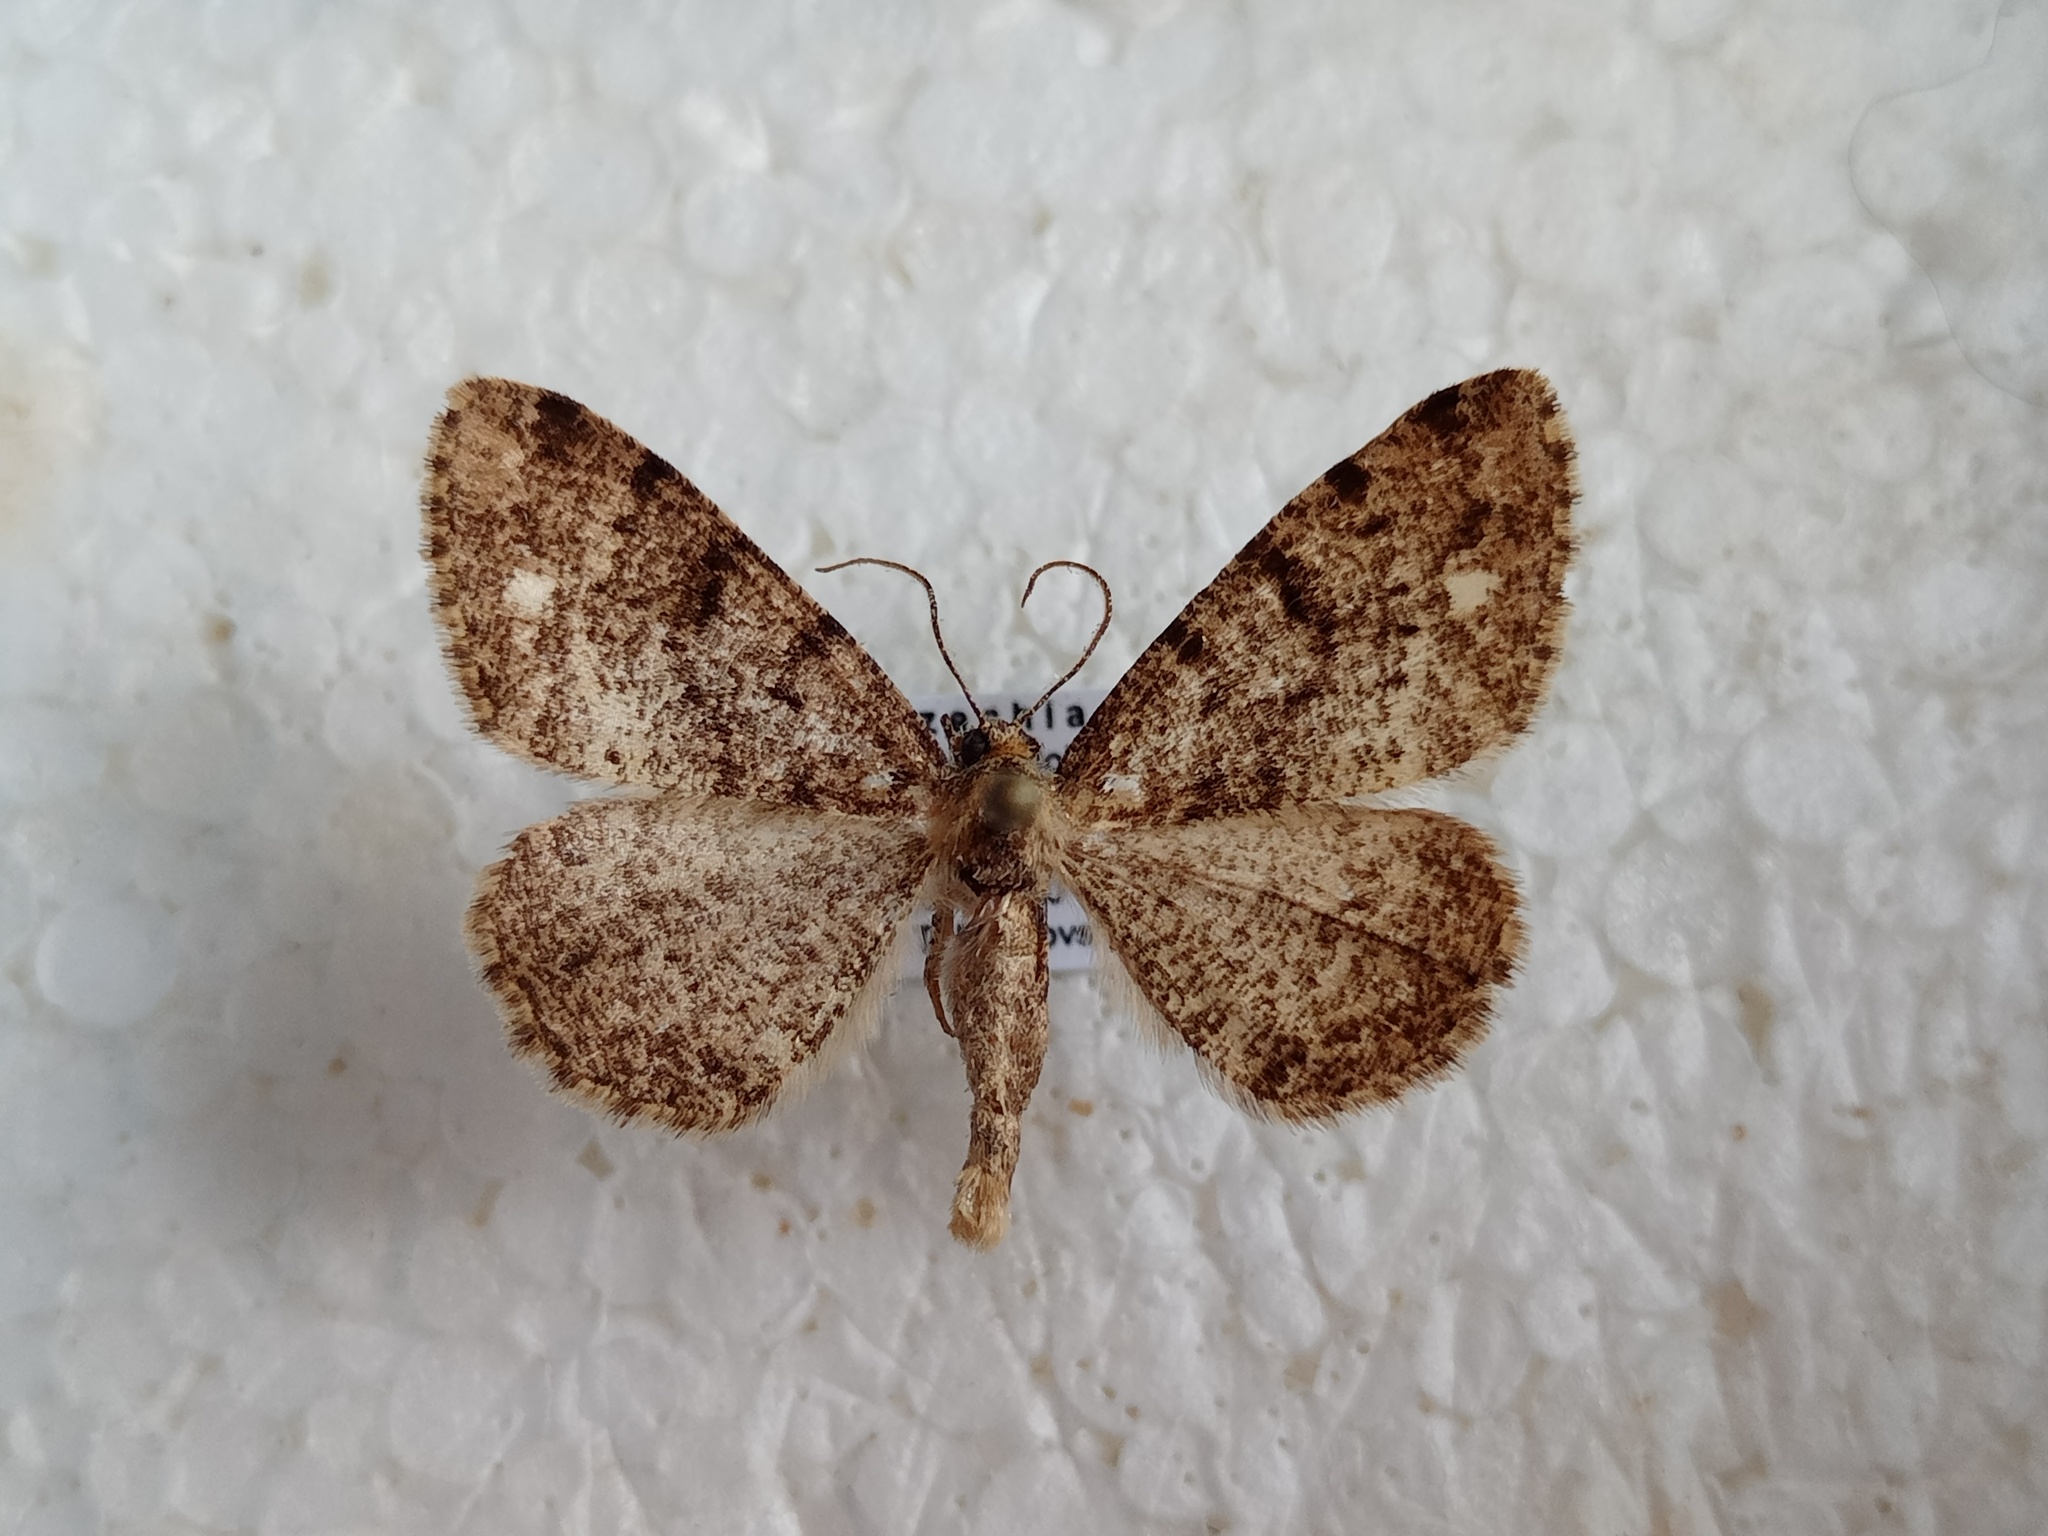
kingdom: Animalia
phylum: Arthropoda
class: Insecta
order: Lepidoptera
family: Geometridae
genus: Parectropis
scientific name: Parectropis similaria
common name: Brindled white-spot
